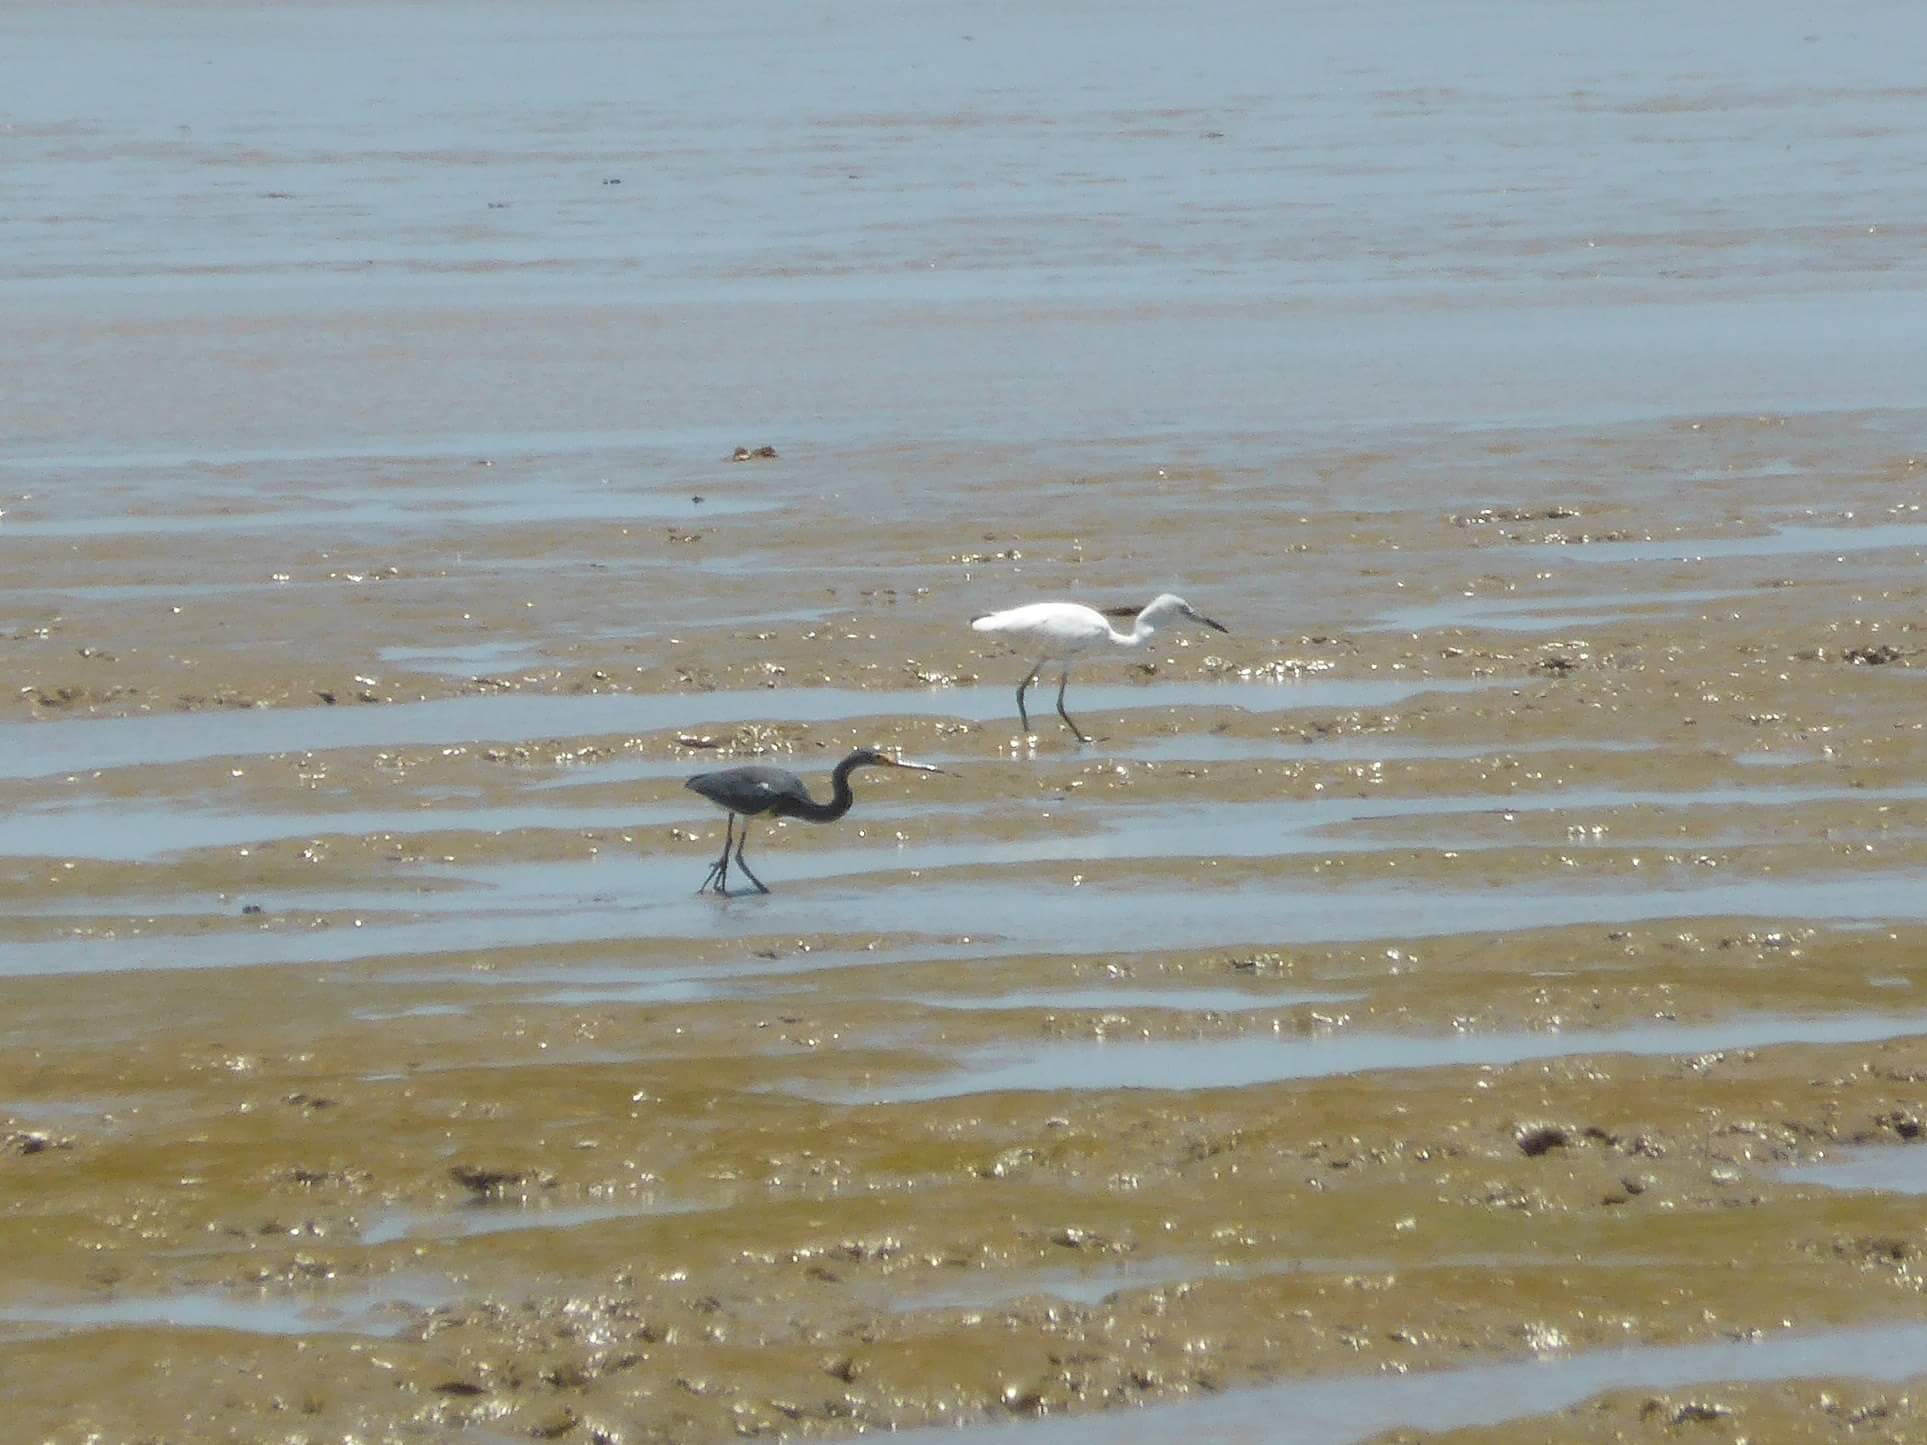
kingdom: Animalia
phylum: Chordata
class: Aves
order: Pelecaniformes
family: Ardeidae
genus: Egretta
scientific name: Egretta tricolor
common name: Tricolored heron
